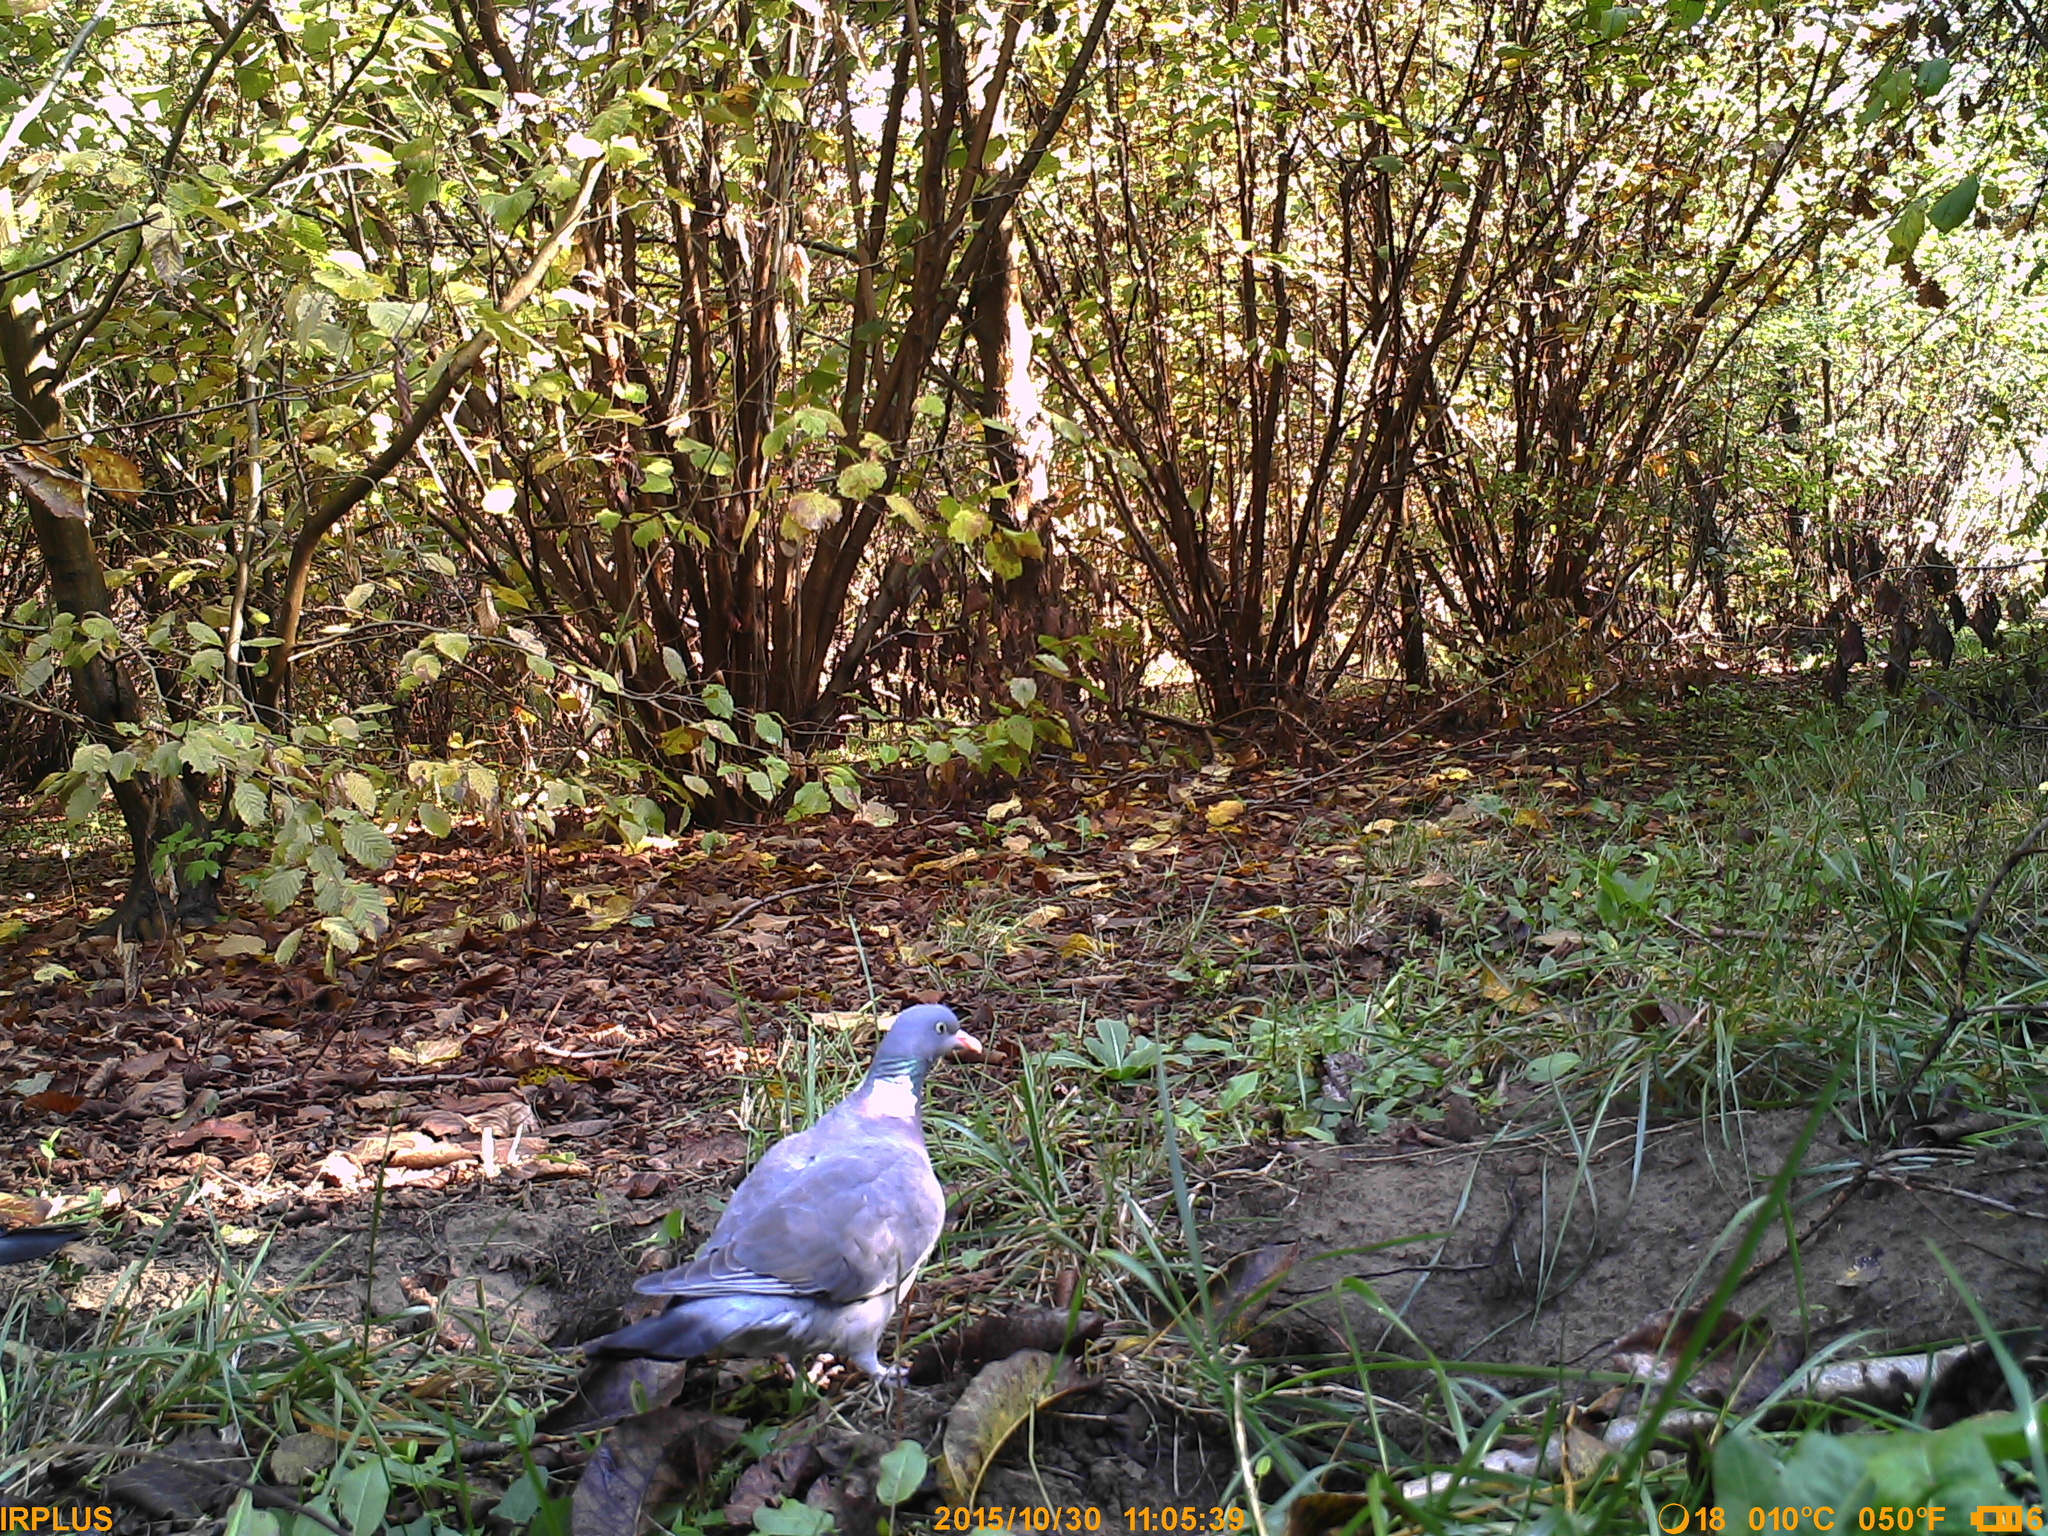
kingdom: Animalia
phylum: Chordata
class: Aves
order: Columbiformes
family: Columbidae
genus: Columba
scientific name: Columba palumbus
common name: Common wood pigeon
